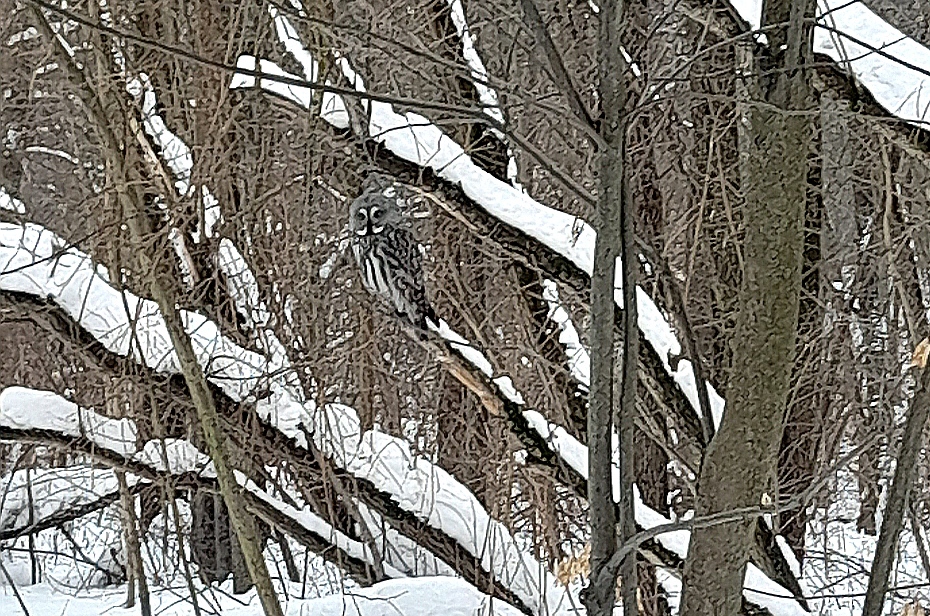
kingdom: Animalia
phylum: Chordata
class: Aves
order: Strigiformes
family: Strigidae
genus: Strix
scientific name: Strix nebulosa
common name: Great grey owl
